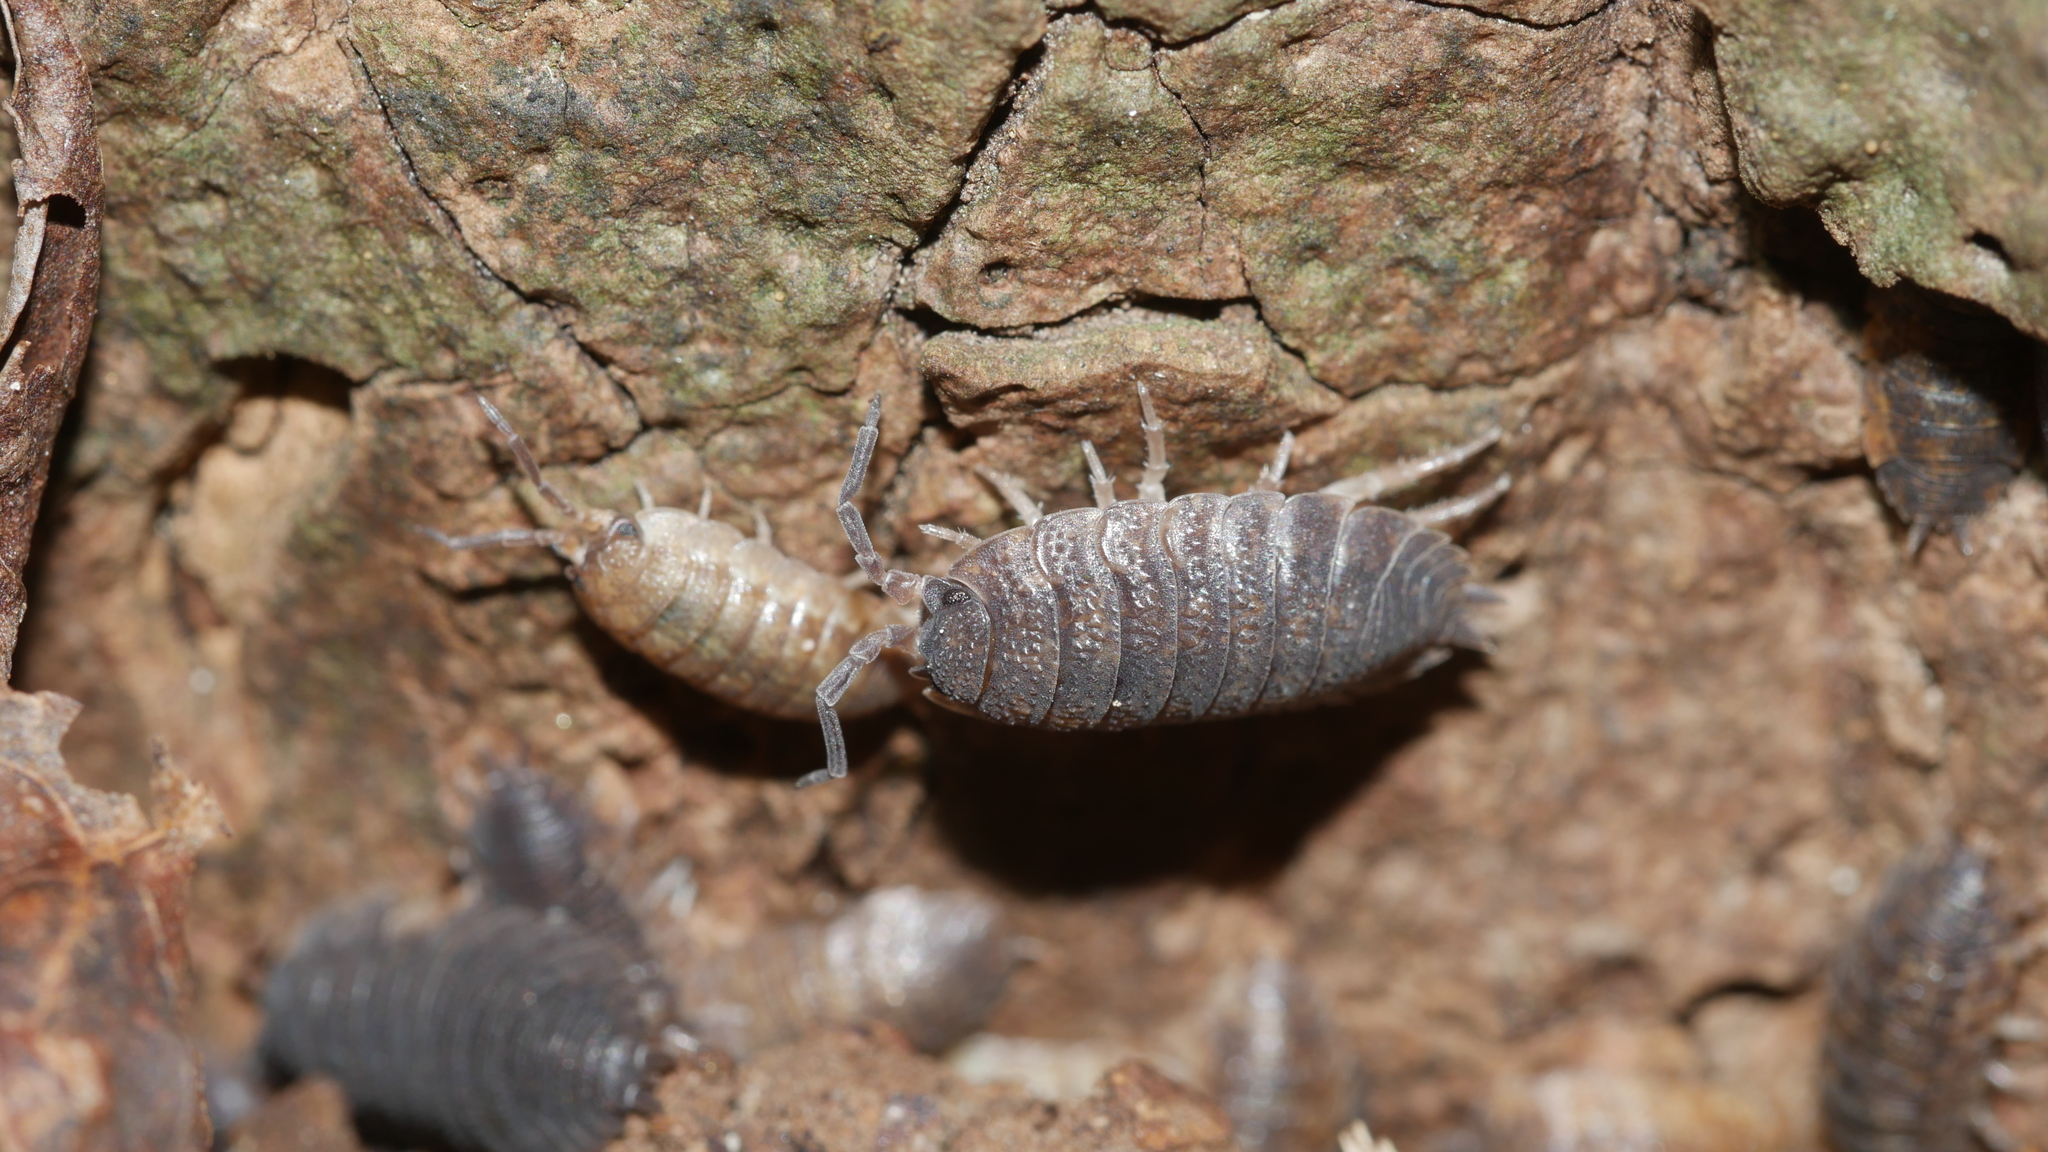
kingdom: Animalia
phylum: Arthropoda
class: Malacostraca
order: Isopoda
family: Porcellionidae
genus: Porcellio
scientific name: Porcellio scaber
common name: Common rough woodlouse
